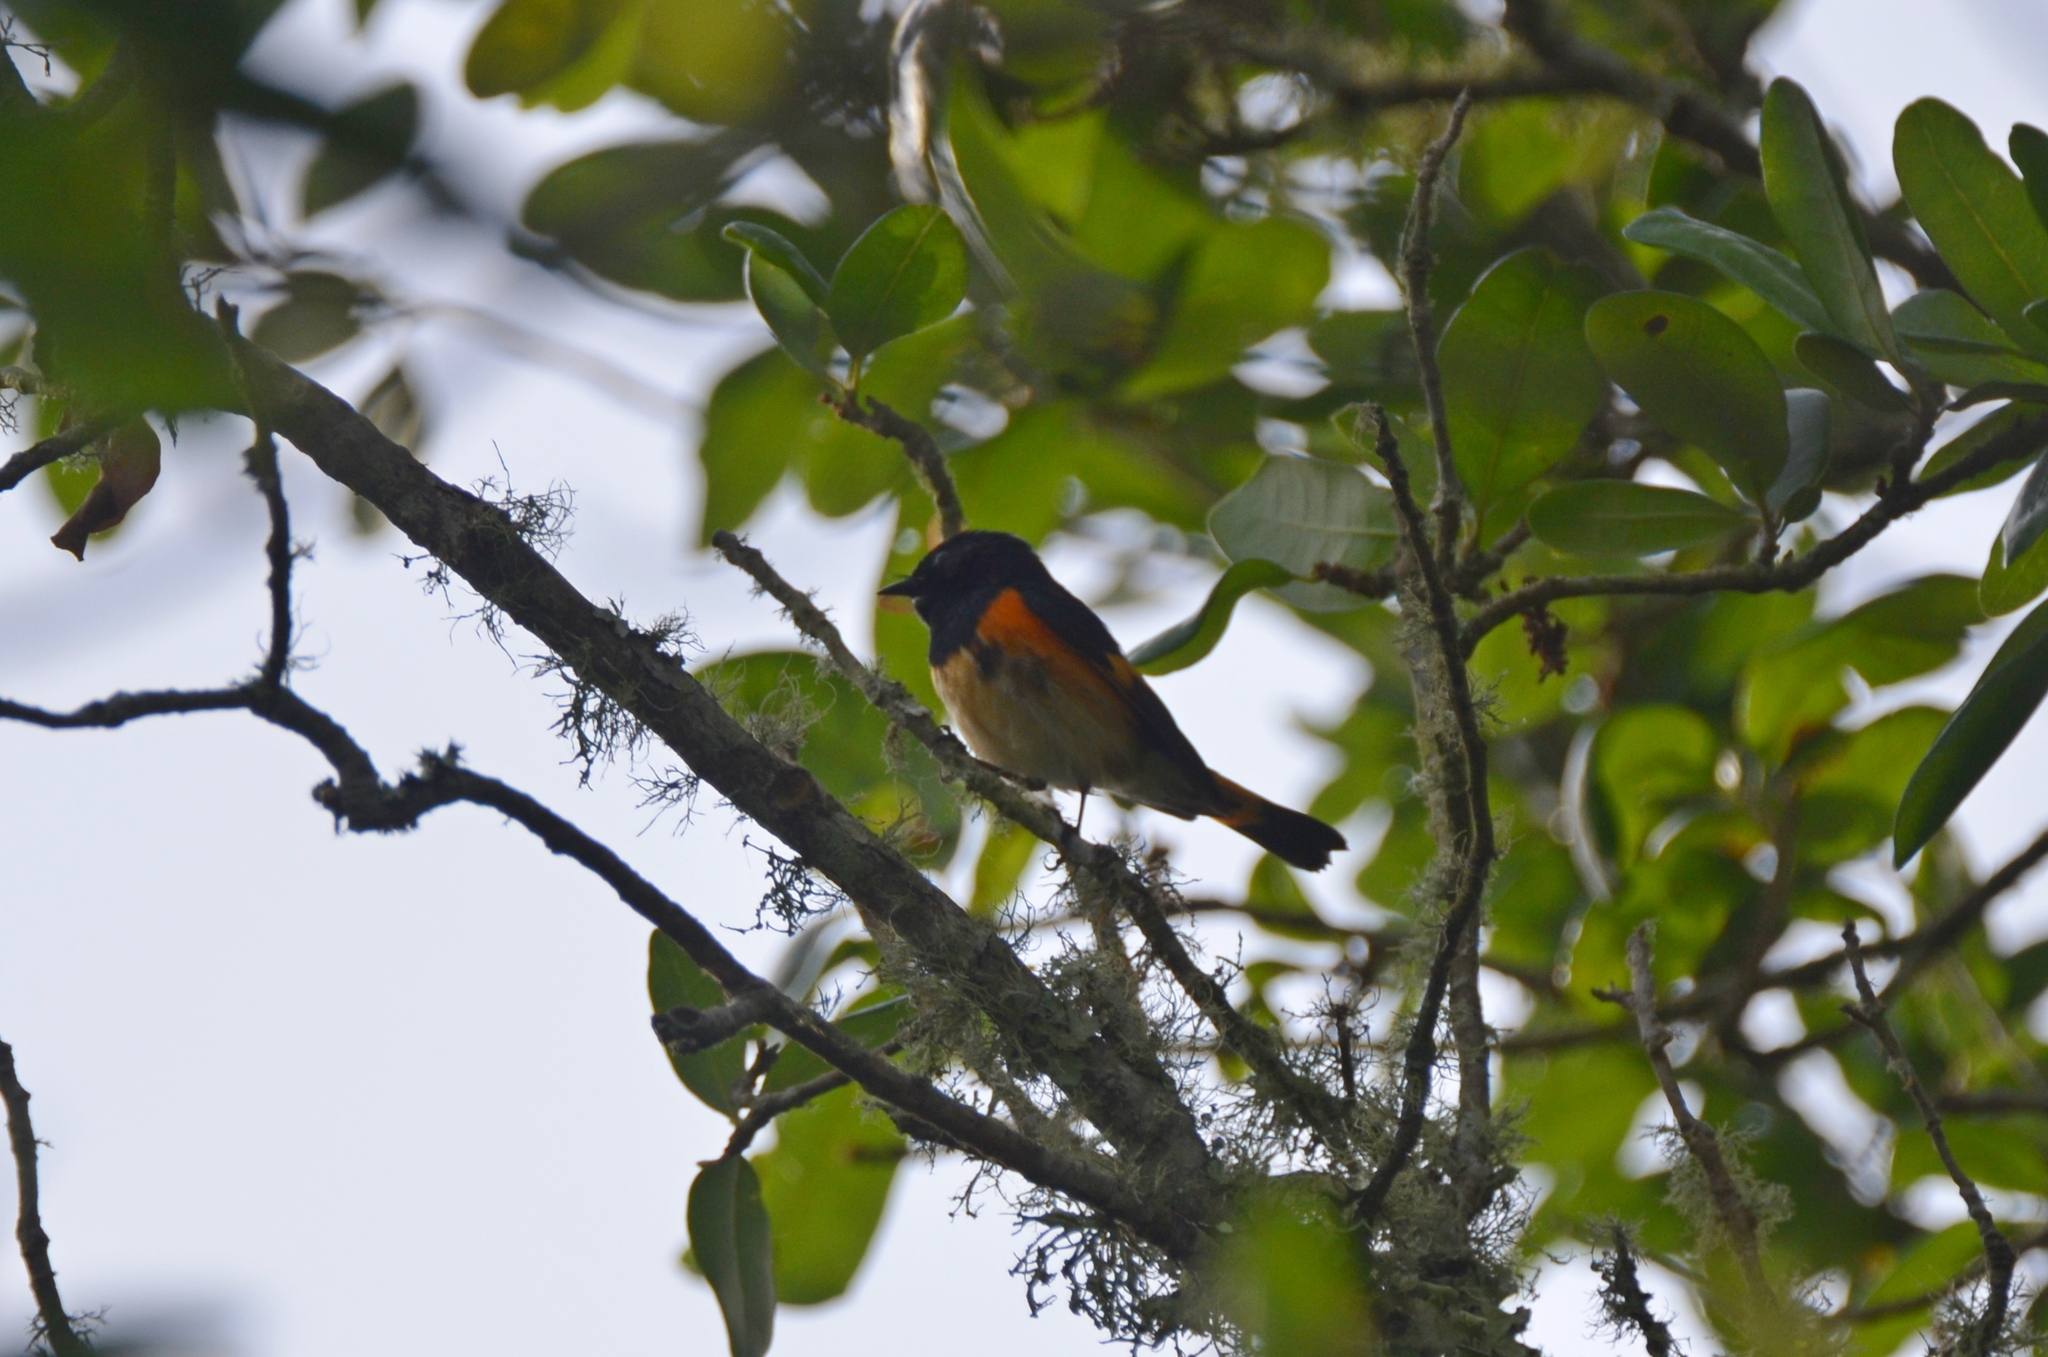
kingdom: Animalia
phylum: Chordata
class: Aves
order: Passeriformes
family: Parulidae
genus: Setophaga
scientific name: Setophaga ruticilla
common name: American redstart
